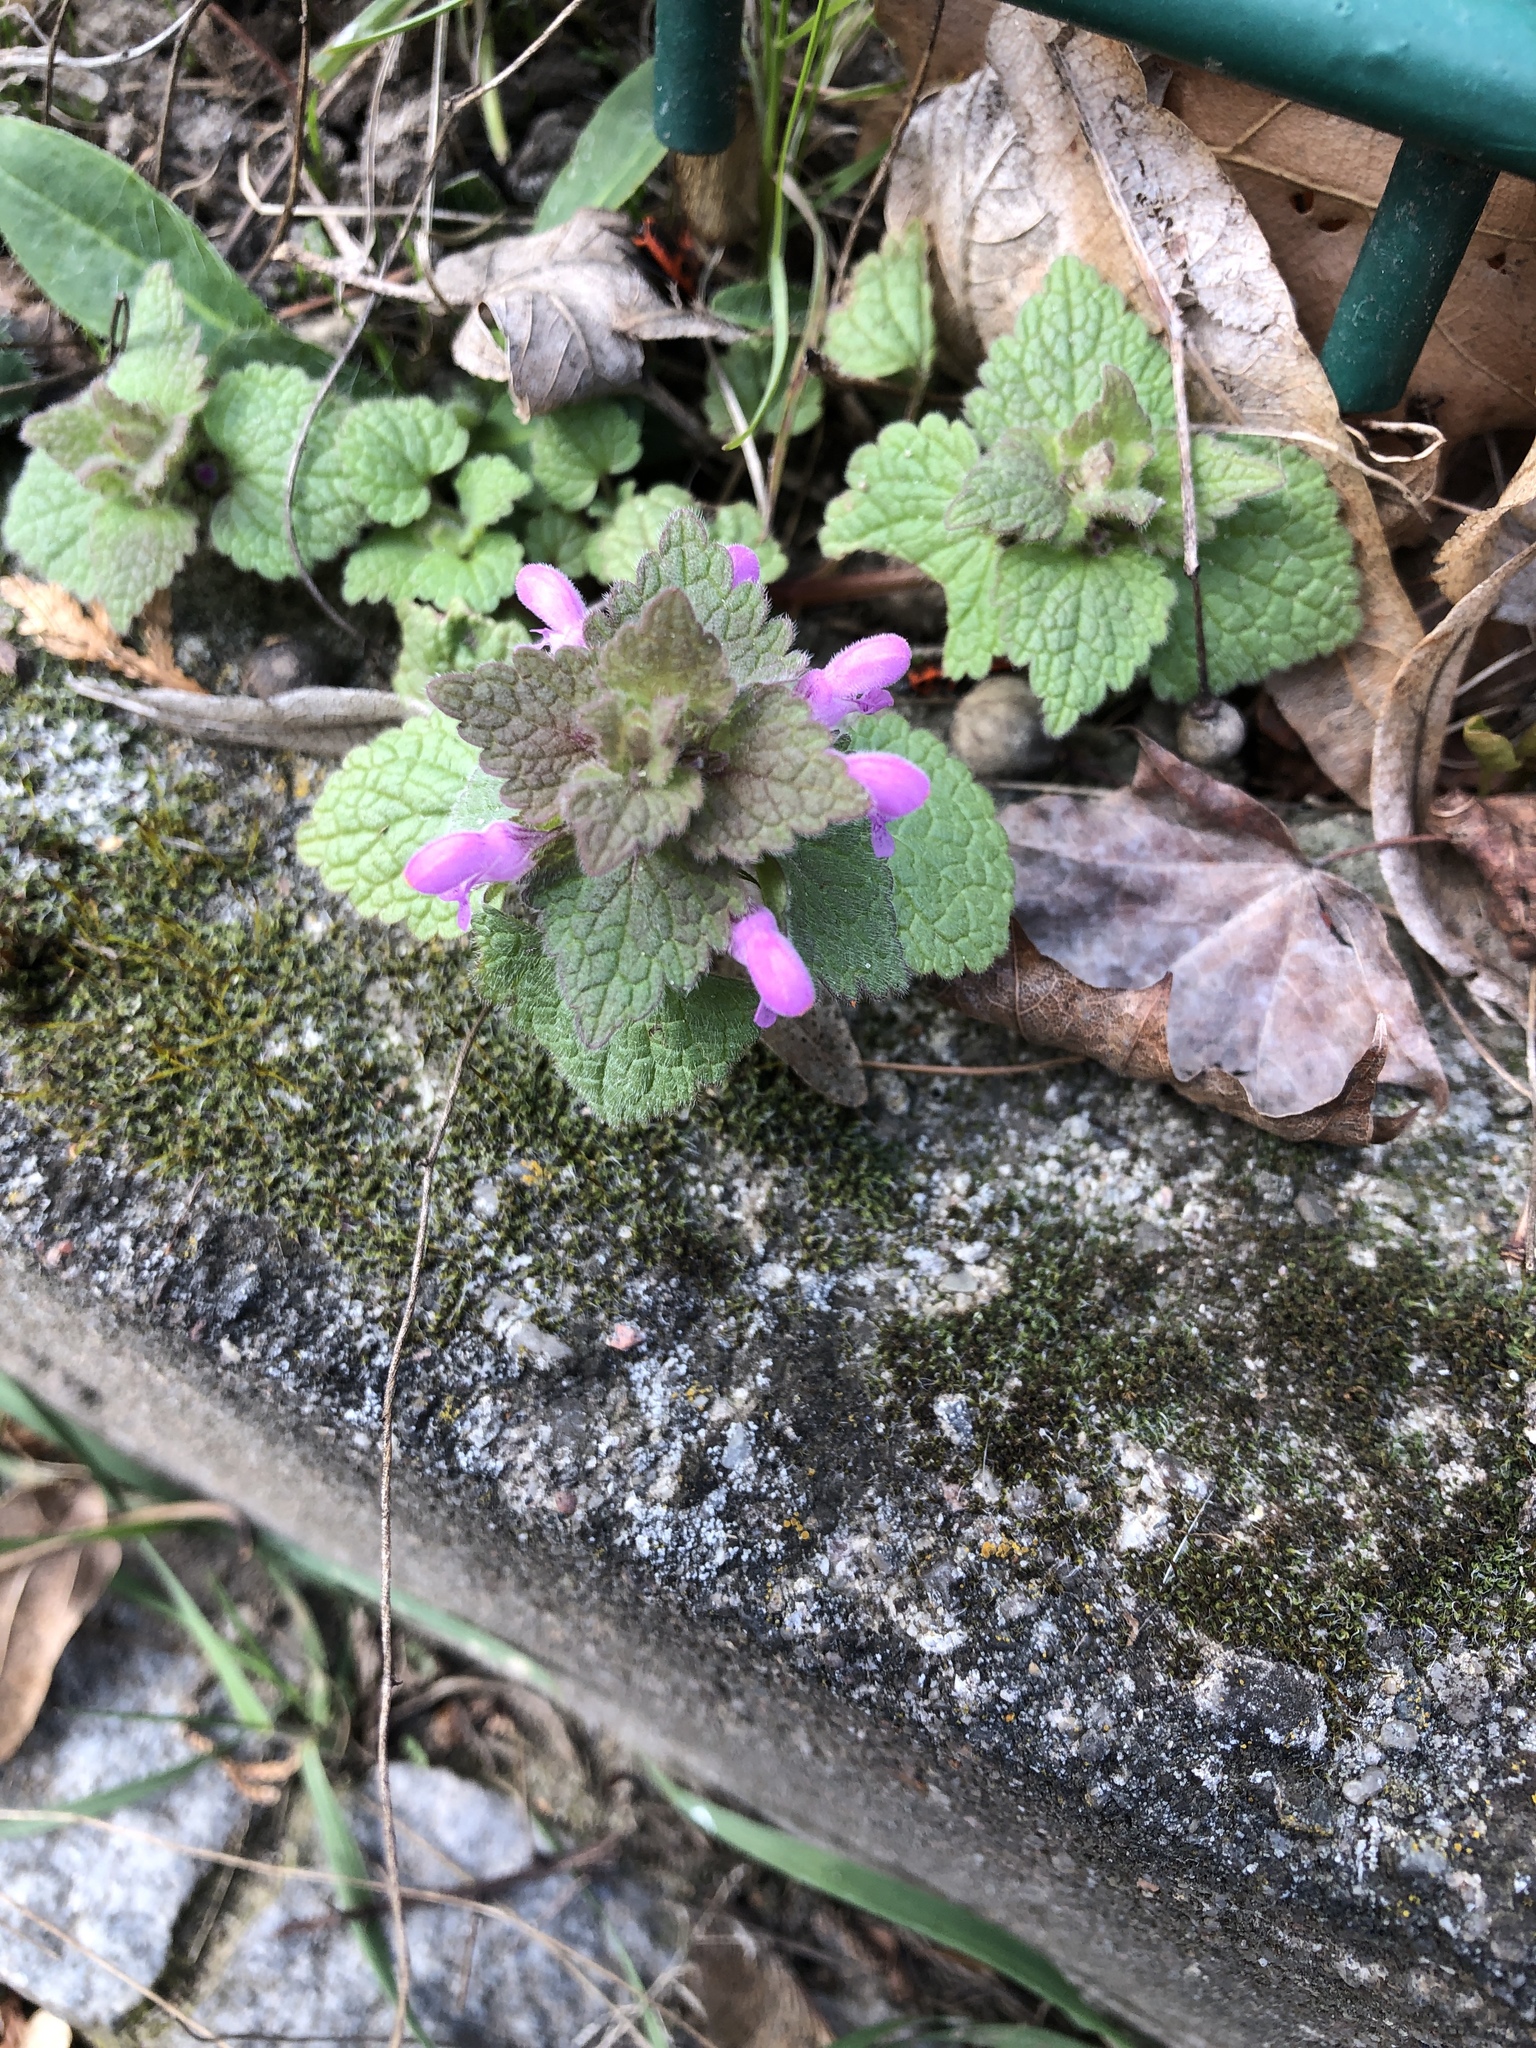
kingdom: Plantae
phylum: Tracheophyta
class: Magnoliopsida
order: Lamiales
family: Lamiaceae
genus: Lamium
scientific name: Lamium purpureum
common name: Red dead-nettle
